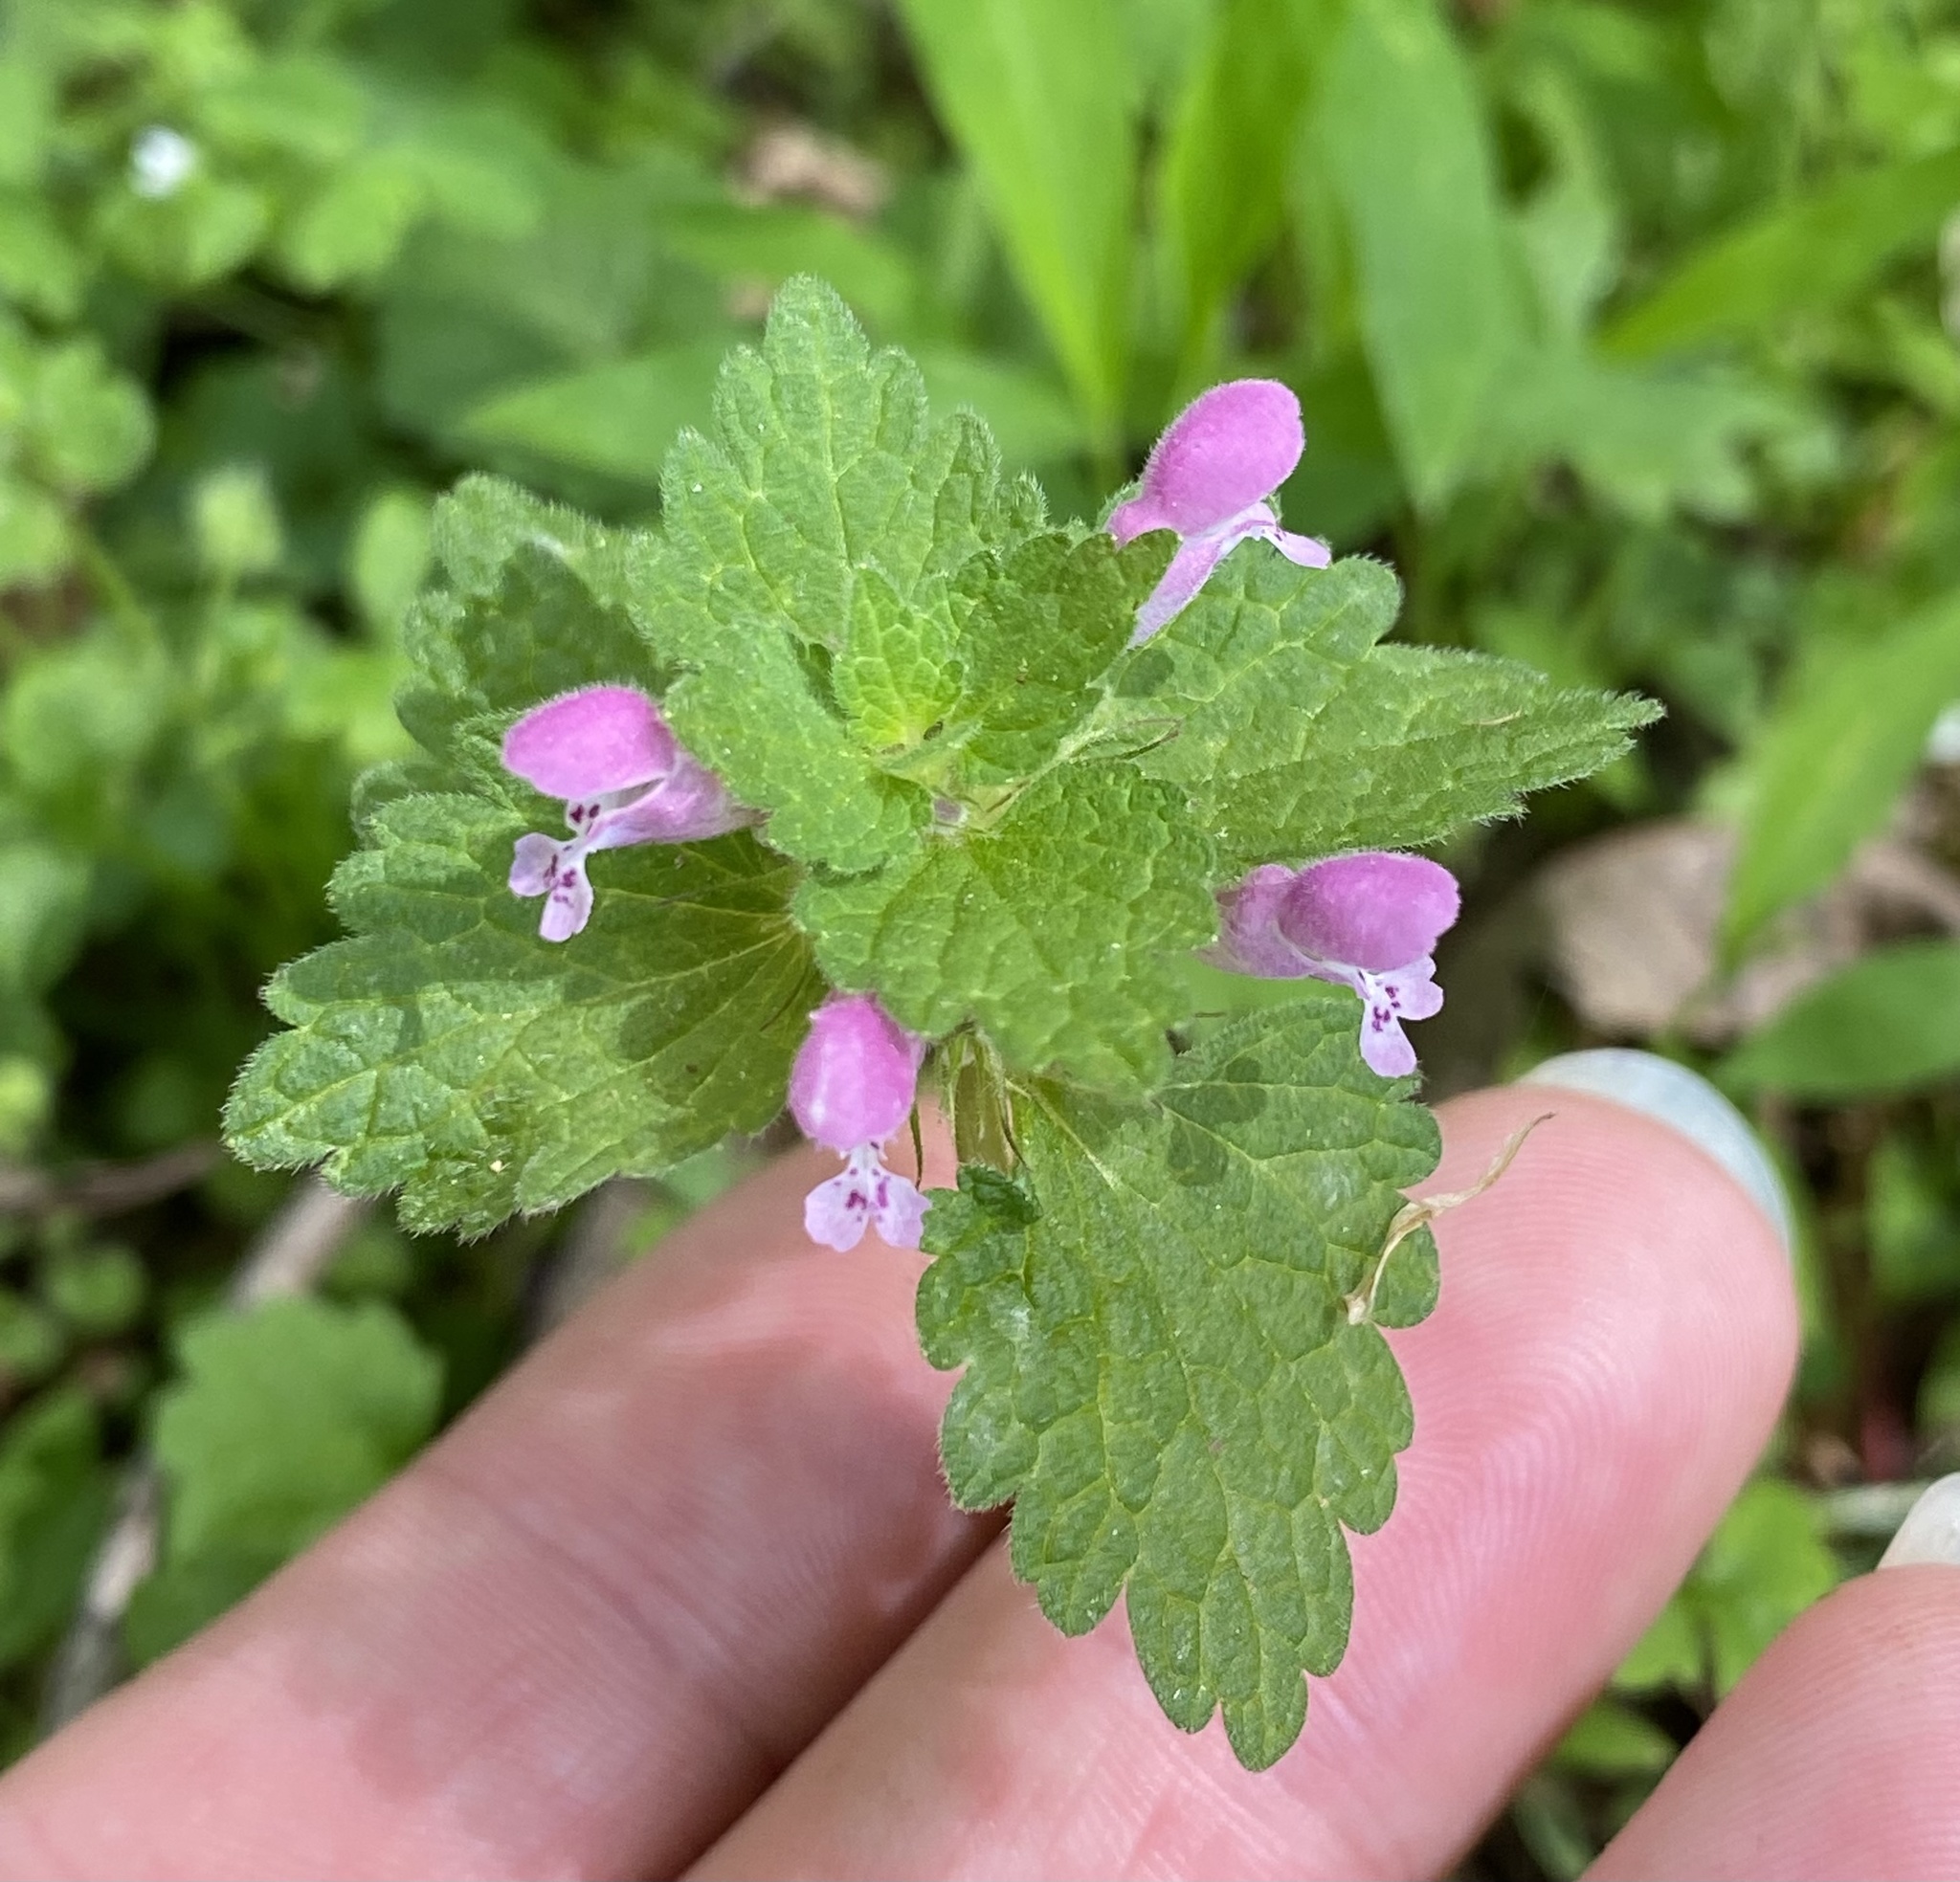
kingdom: Plantae
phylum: Tracheophyta
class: Magnoliopsida
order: Lamiales
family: Lamiaceae
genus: Lamium
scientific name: Lamium purpureum
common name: Red dead-nettle
